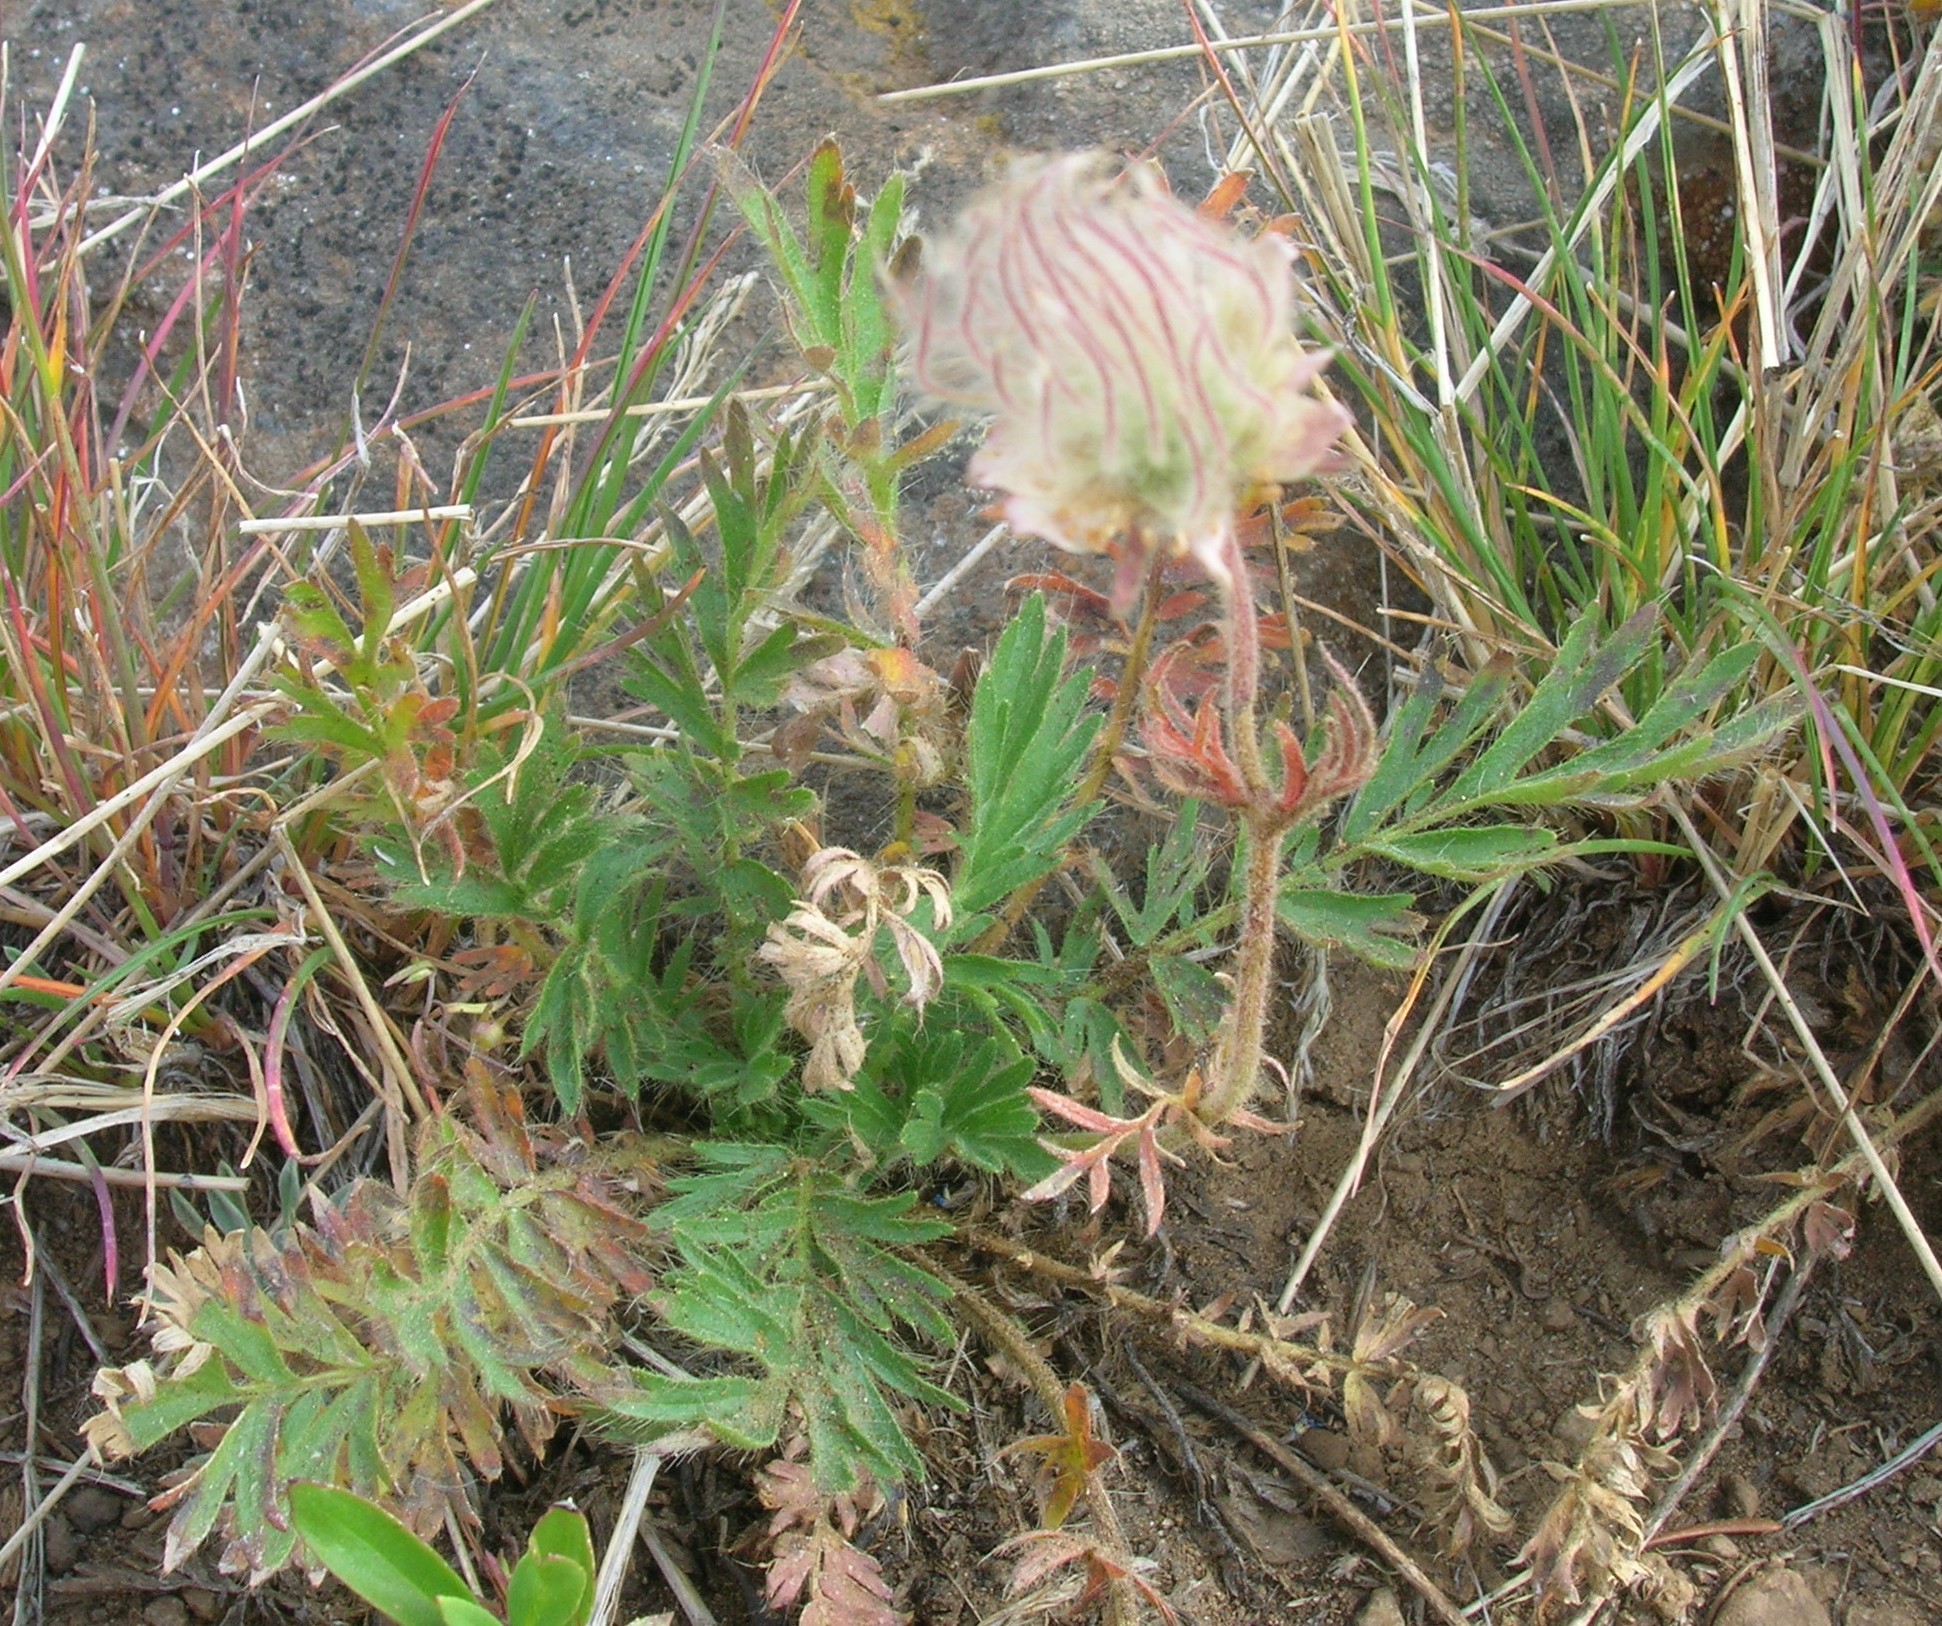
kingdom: Plantae
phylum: Tracheophyta
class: Magnoliopsida
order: Rosales
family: Rosaceae
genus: Geum
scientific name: Geum triflorum
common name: Old man's whiskers
